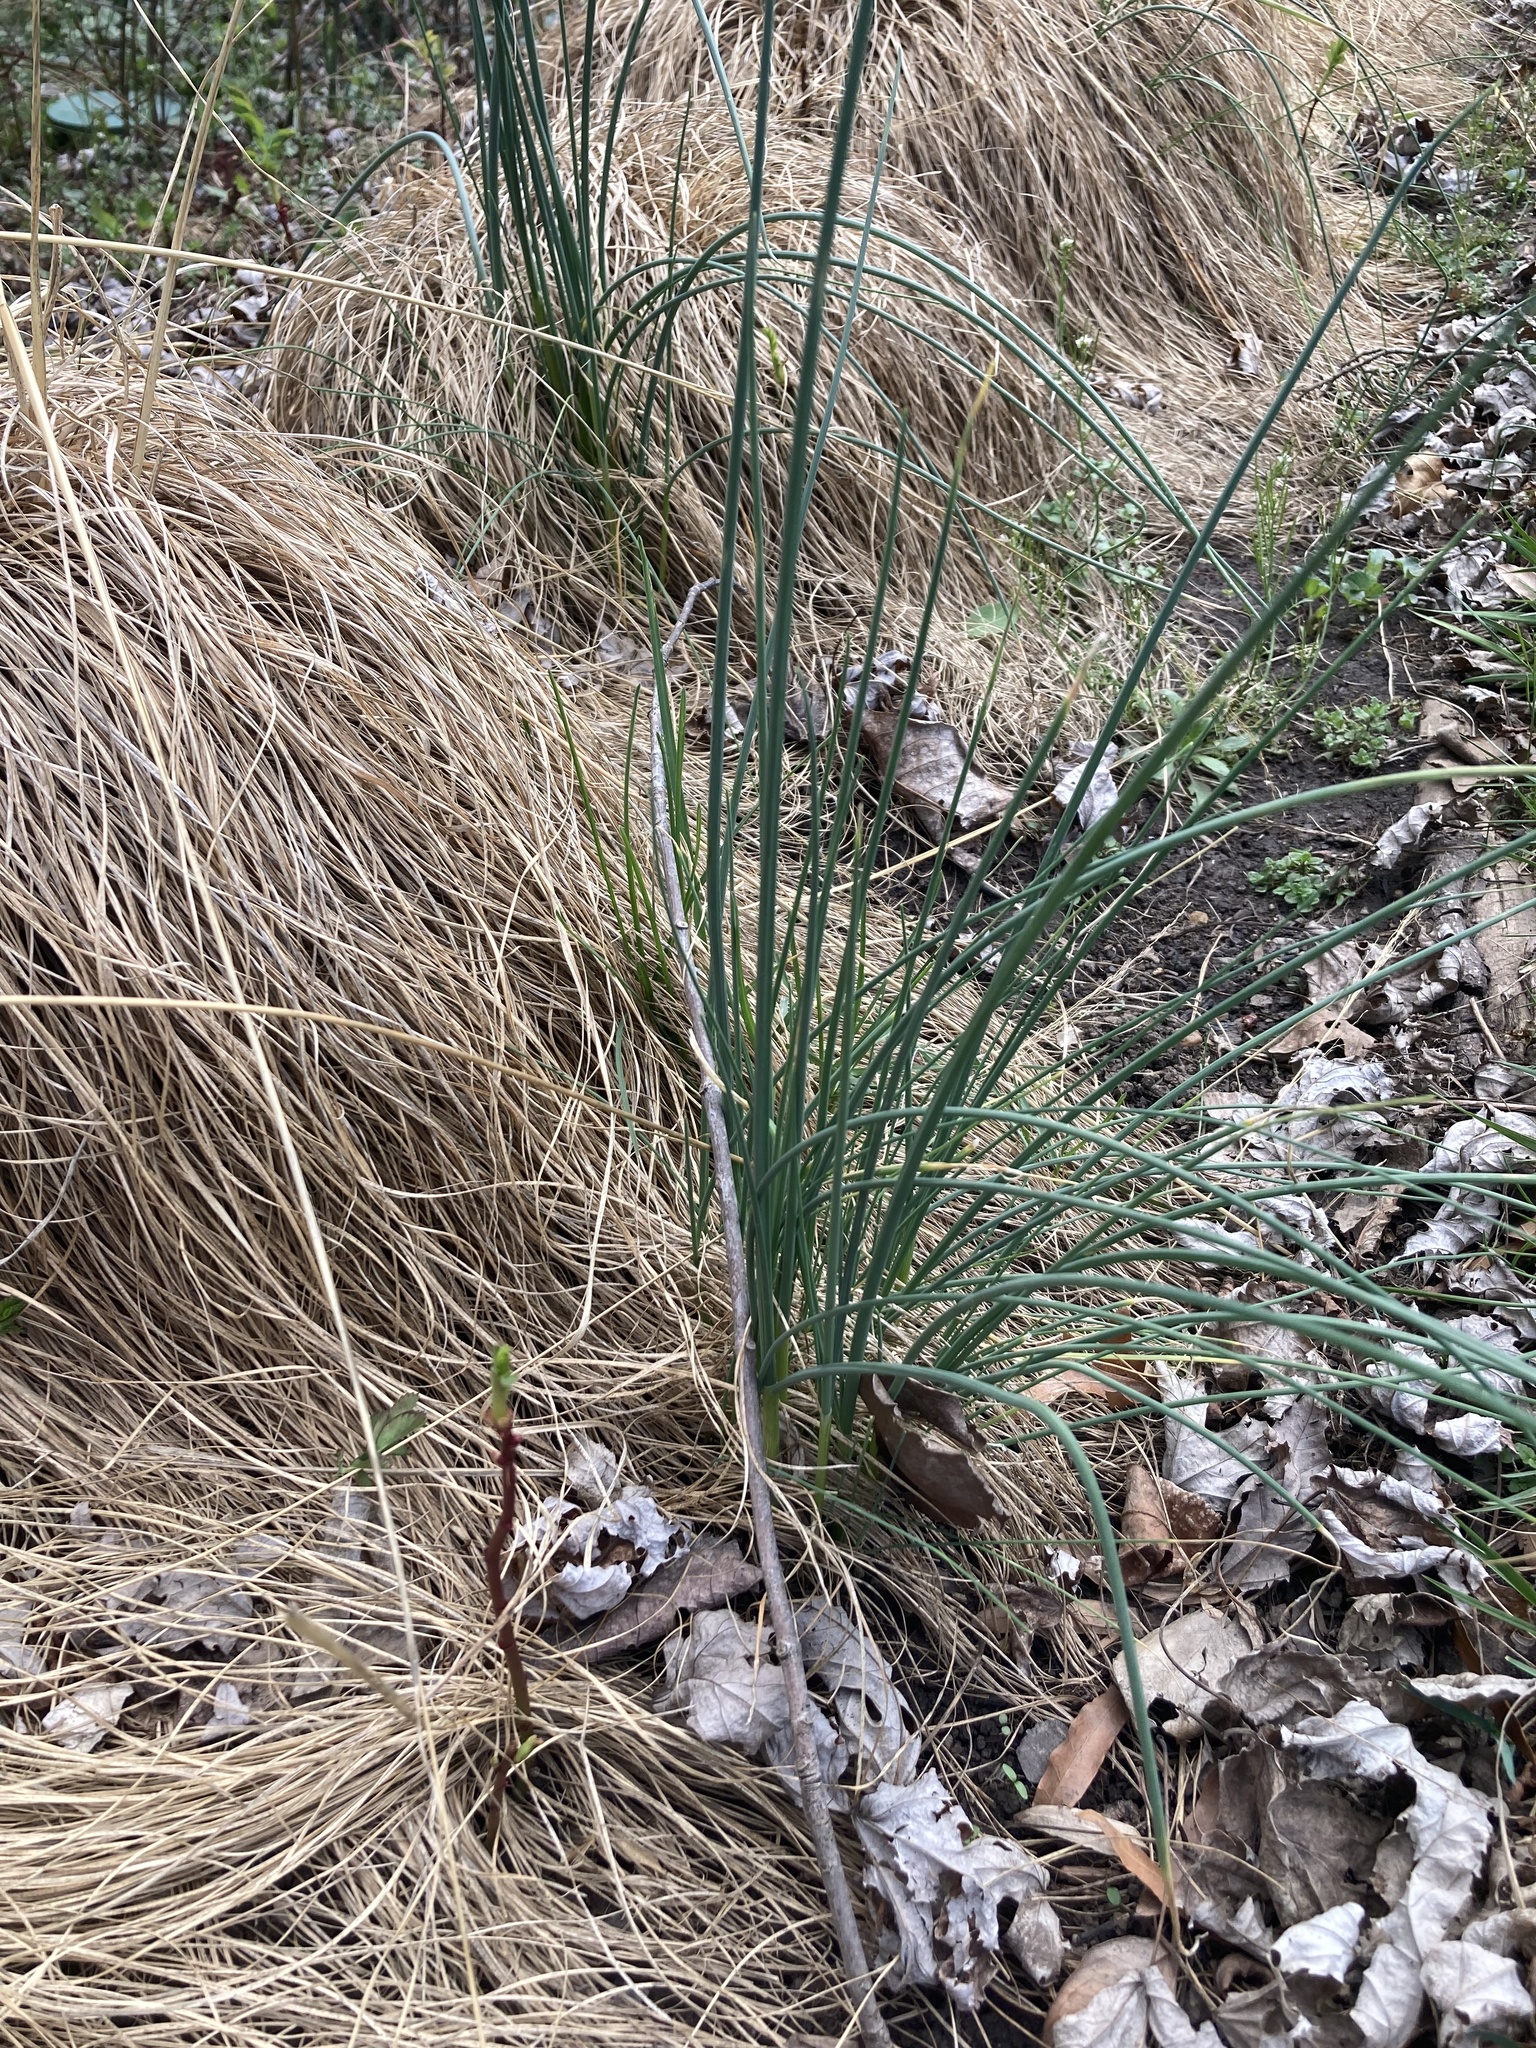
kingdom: Plantae
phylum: Tracheophyta
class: Liliopsida
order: Asparagales
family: Amaryllidaceae
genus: Allium
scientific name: Allium vineale
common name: Crow garlic
